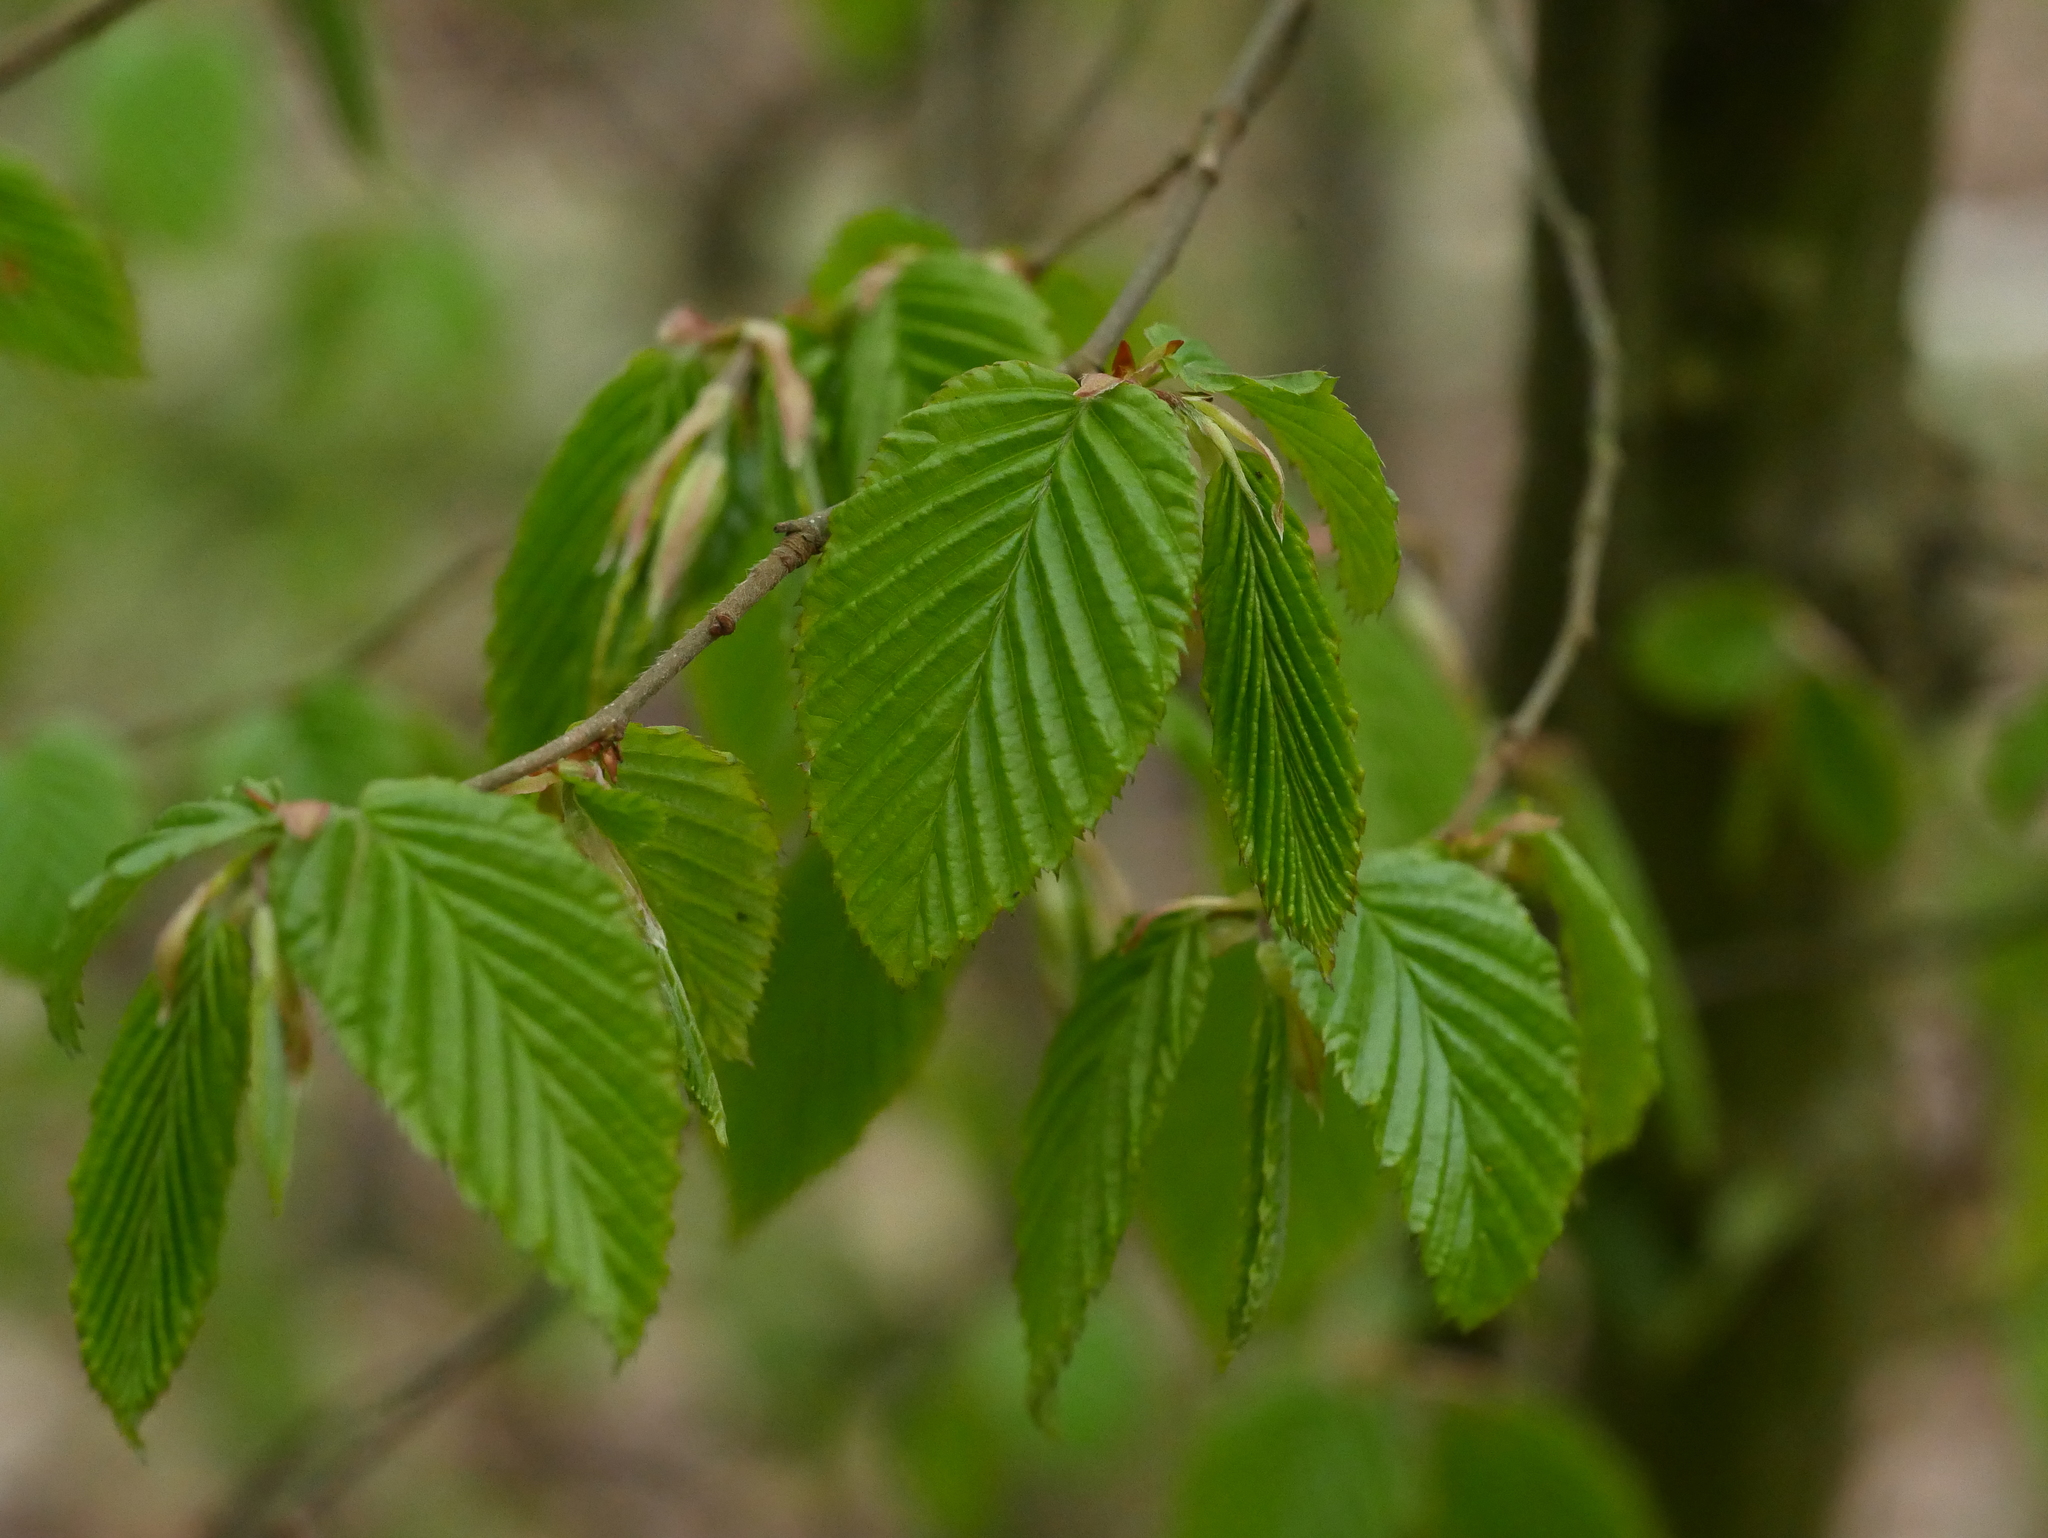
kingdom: Plantae
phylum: Tracheophyta
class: Magnoliopsida
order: Fagales
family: Betulaceae
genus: Carpinus
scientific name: Carpinus betulus
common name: Hornbeam
